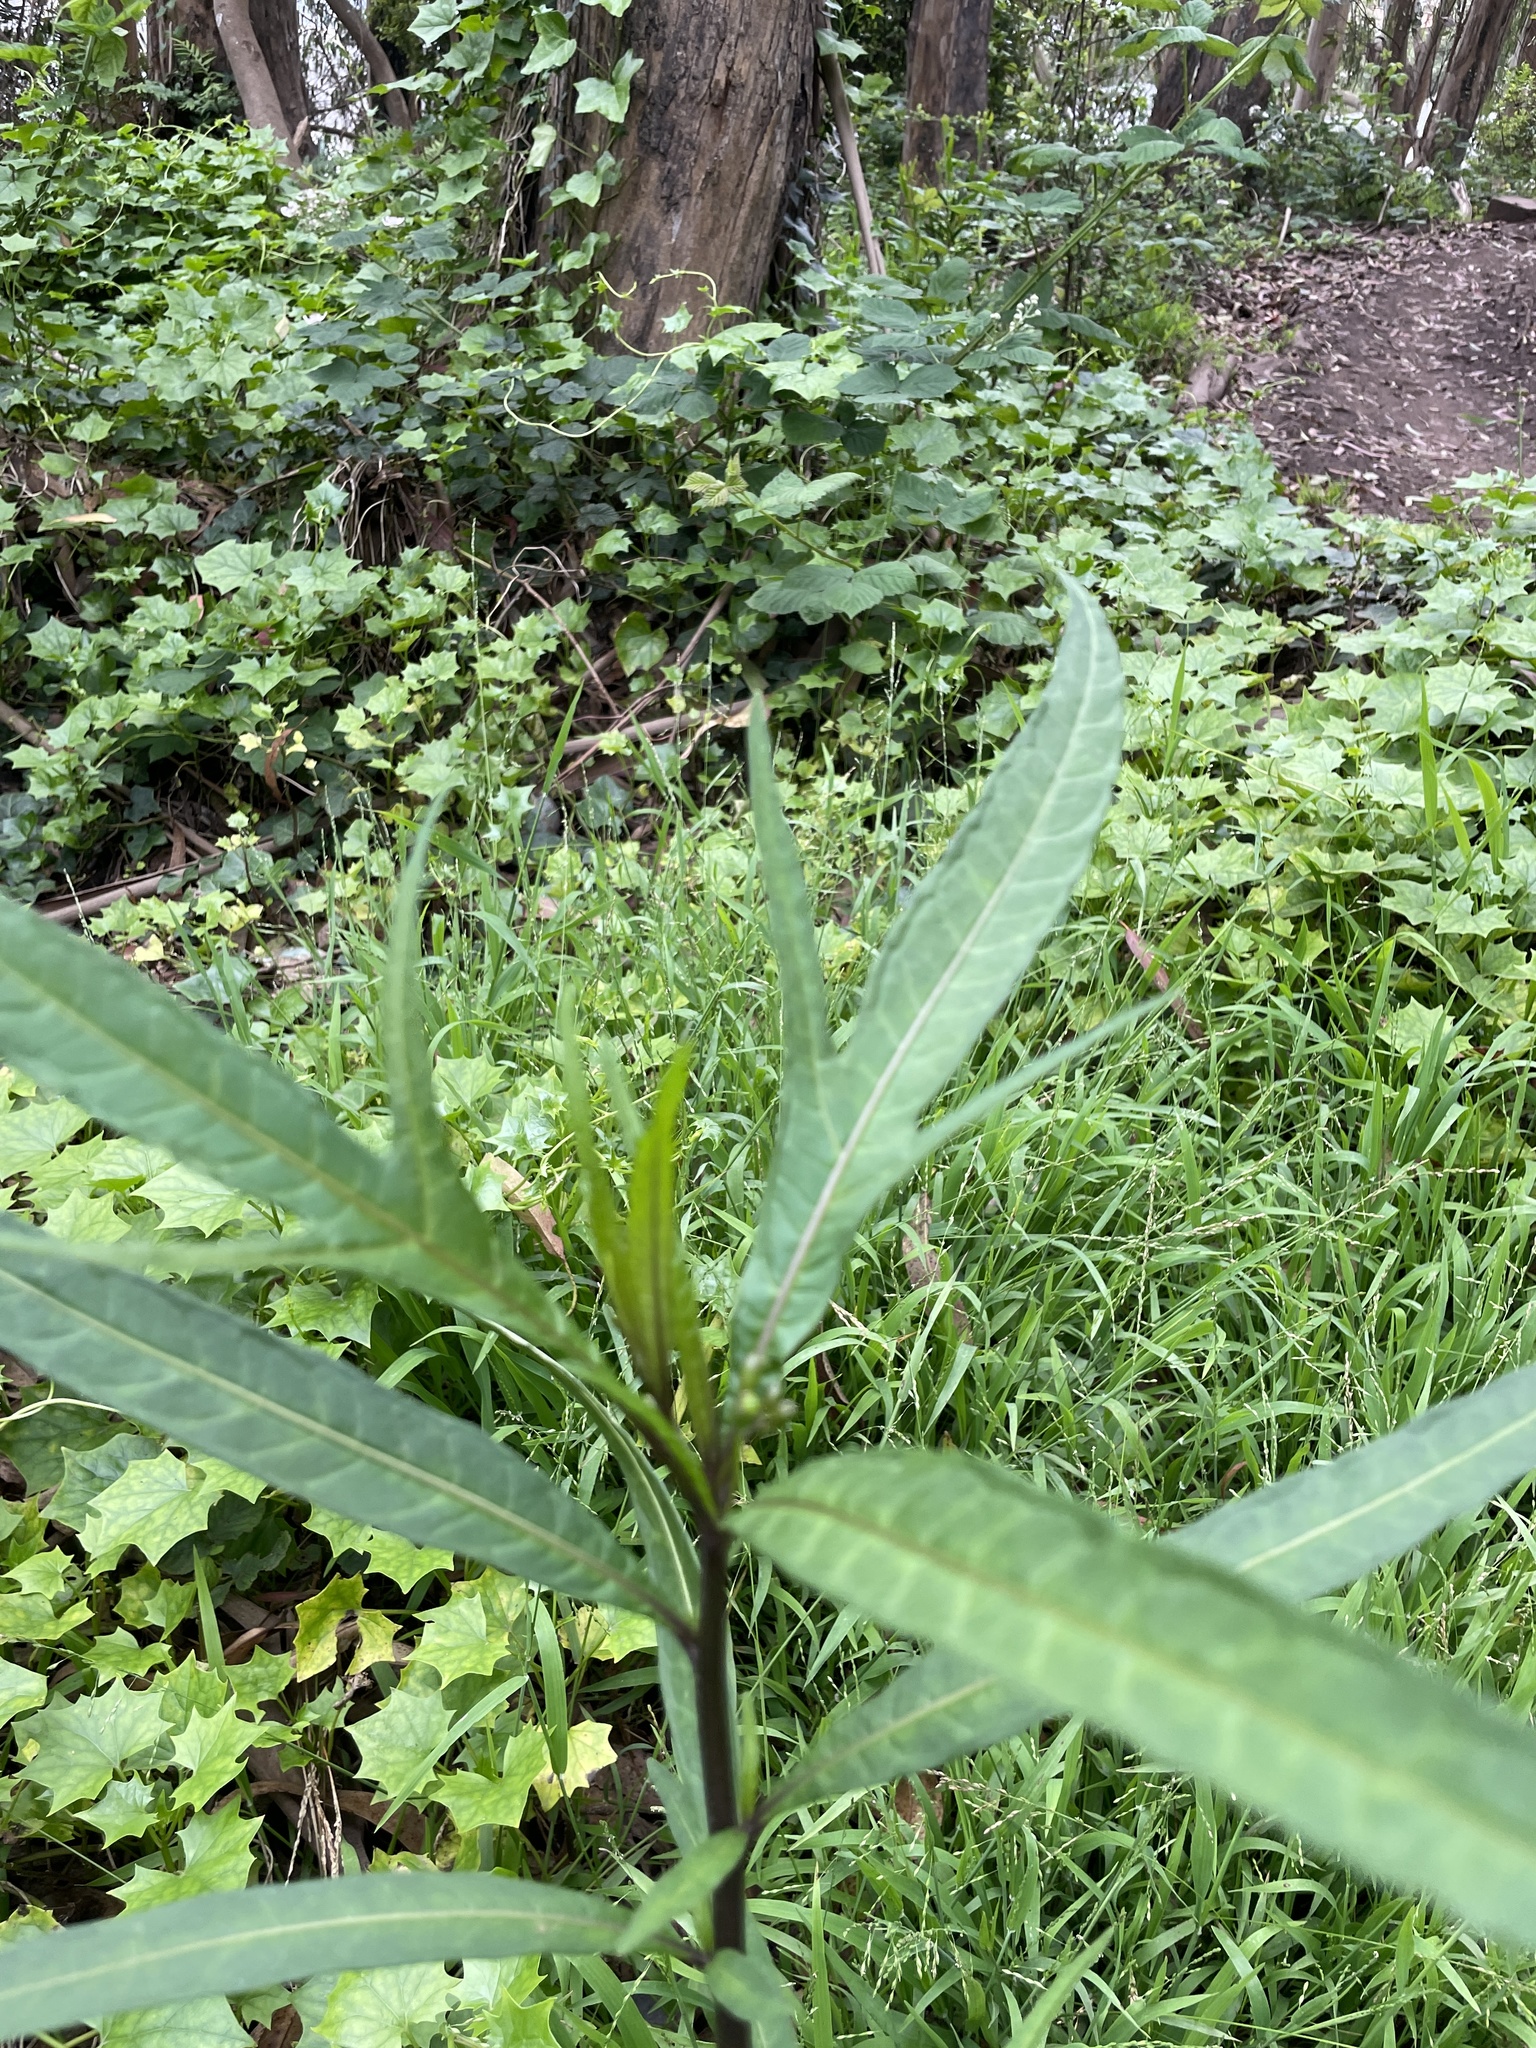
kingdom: Plantae
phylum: Tracheophyta
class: Magnoliopsida
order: Solanales
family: Solanaceae
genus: Solanum
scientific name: Solanum laciniatum
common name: Kangaroo-apple
